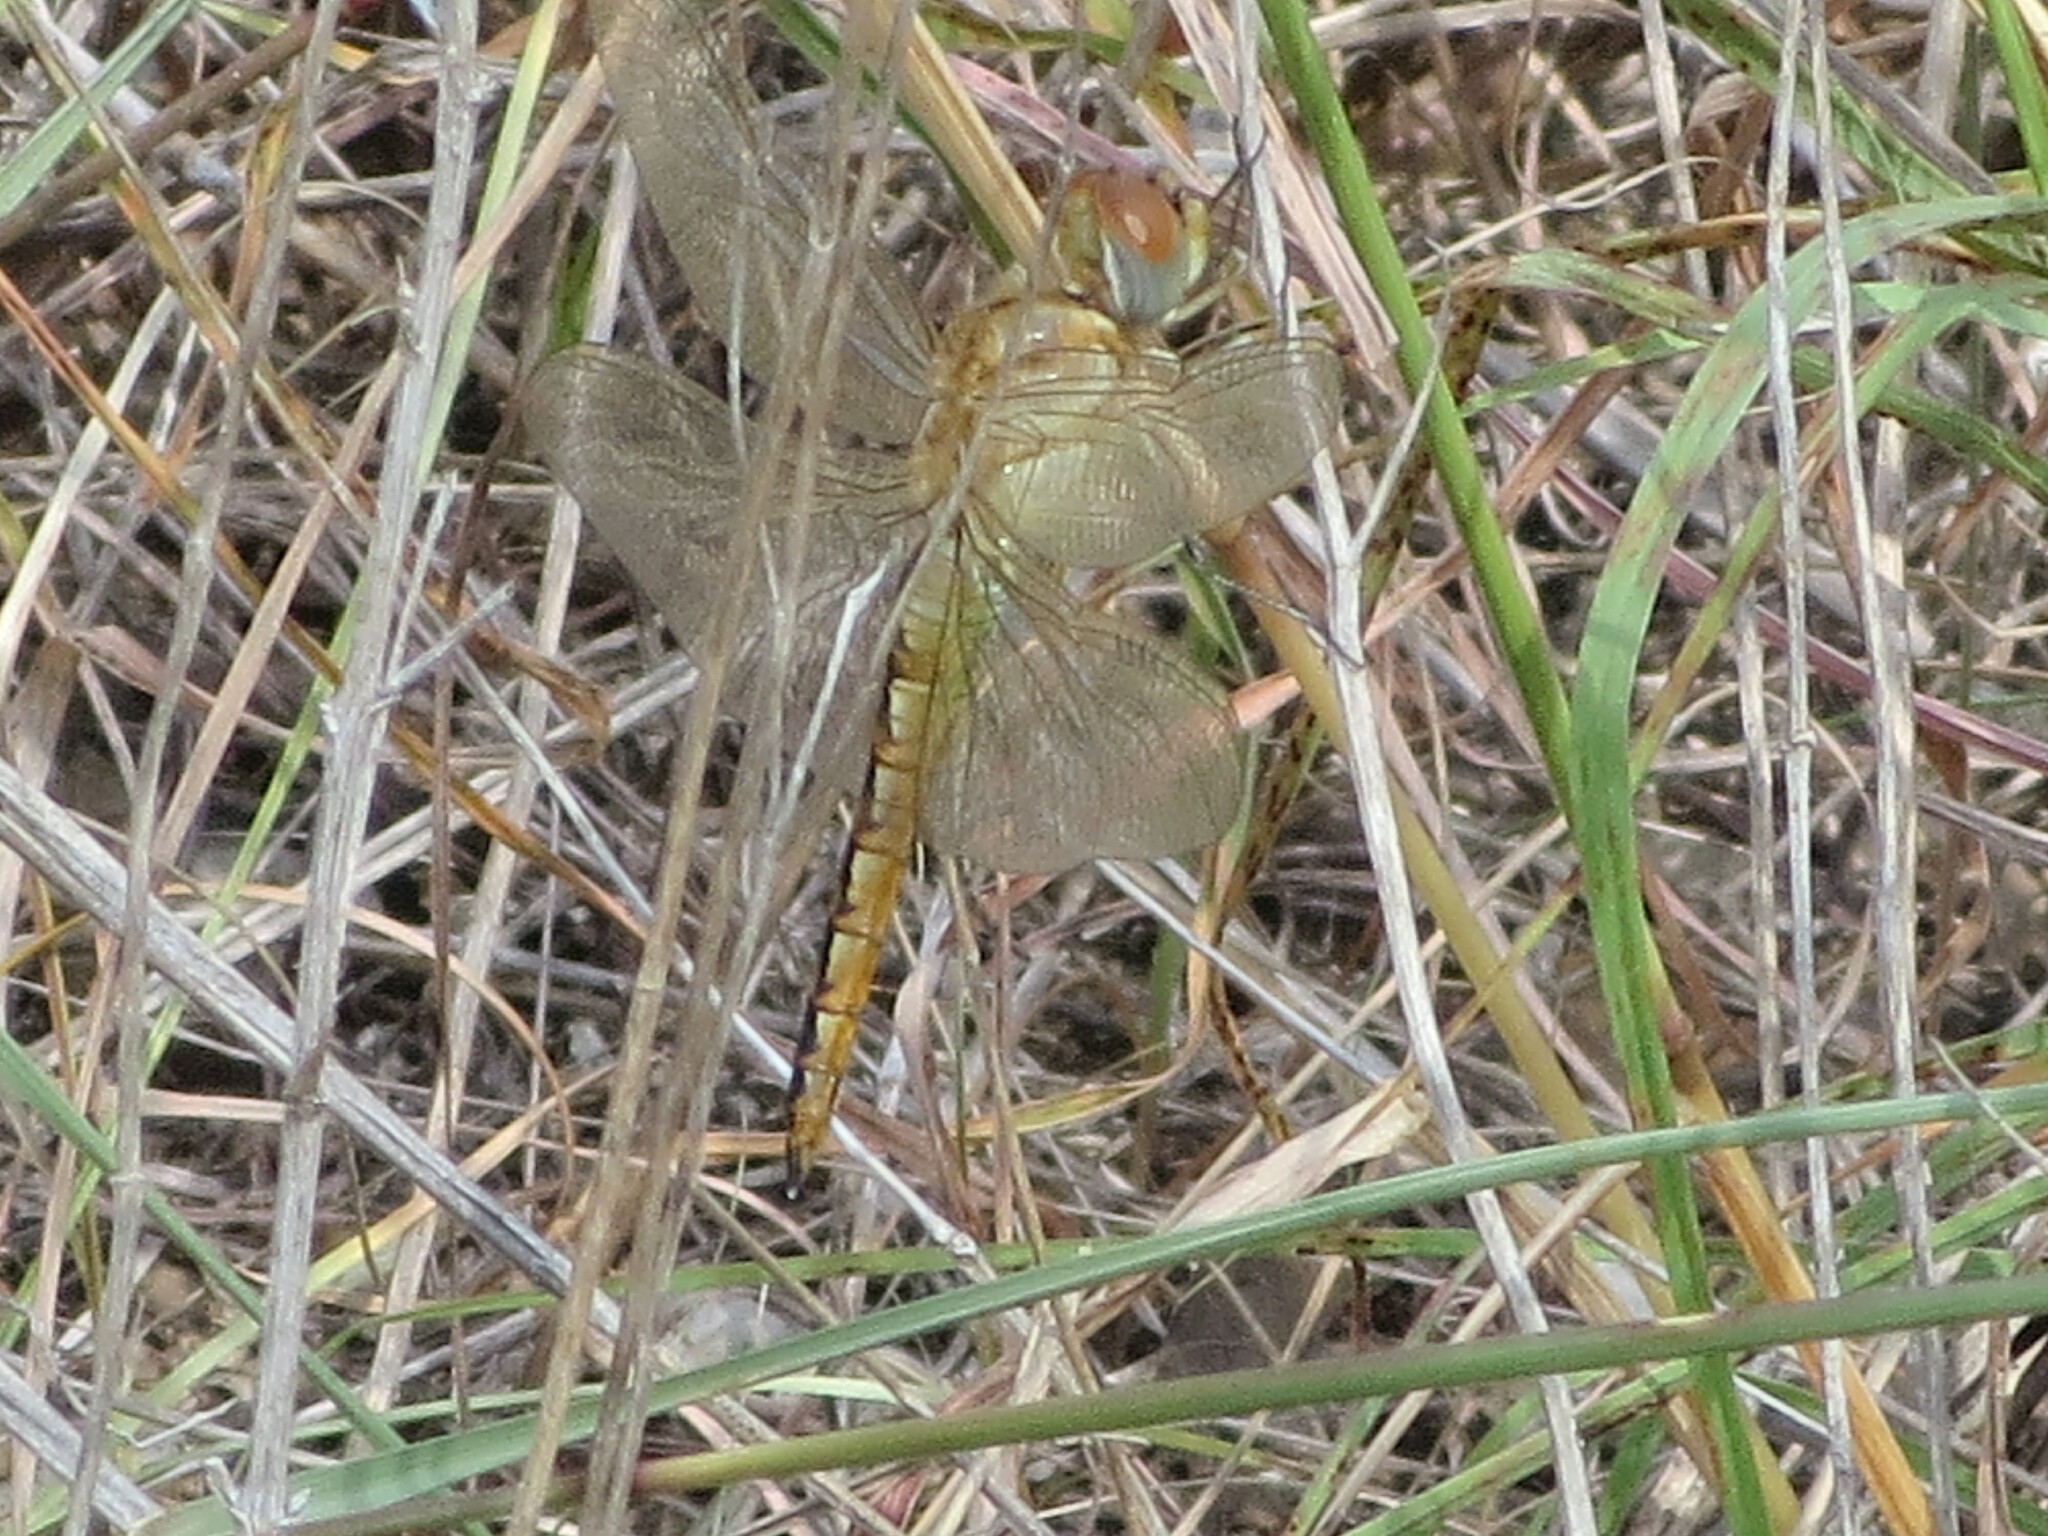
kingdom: Animalia
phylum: Arthropoda
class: Insecta
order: Odonata
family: Libellulidae
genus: Pantala
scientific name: Pantala flavescens
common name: Wandering glider
